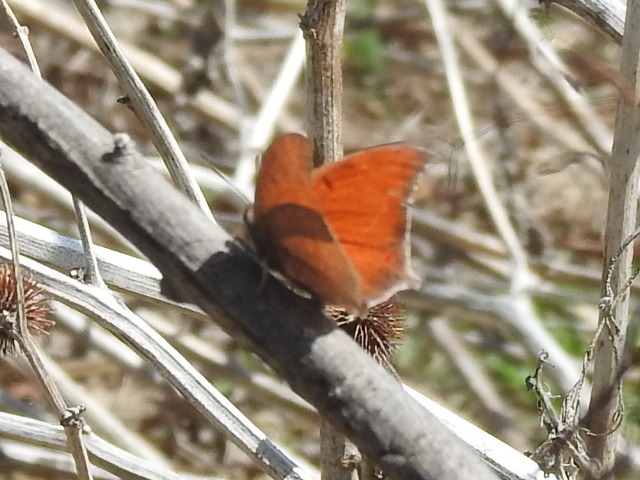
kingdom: Animalia
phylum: Arthropoda
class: Insecta
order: Lepidoptera
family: Nymphalidae
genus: Anaea
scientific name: Anaea andria
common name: Goatweed leafwing
